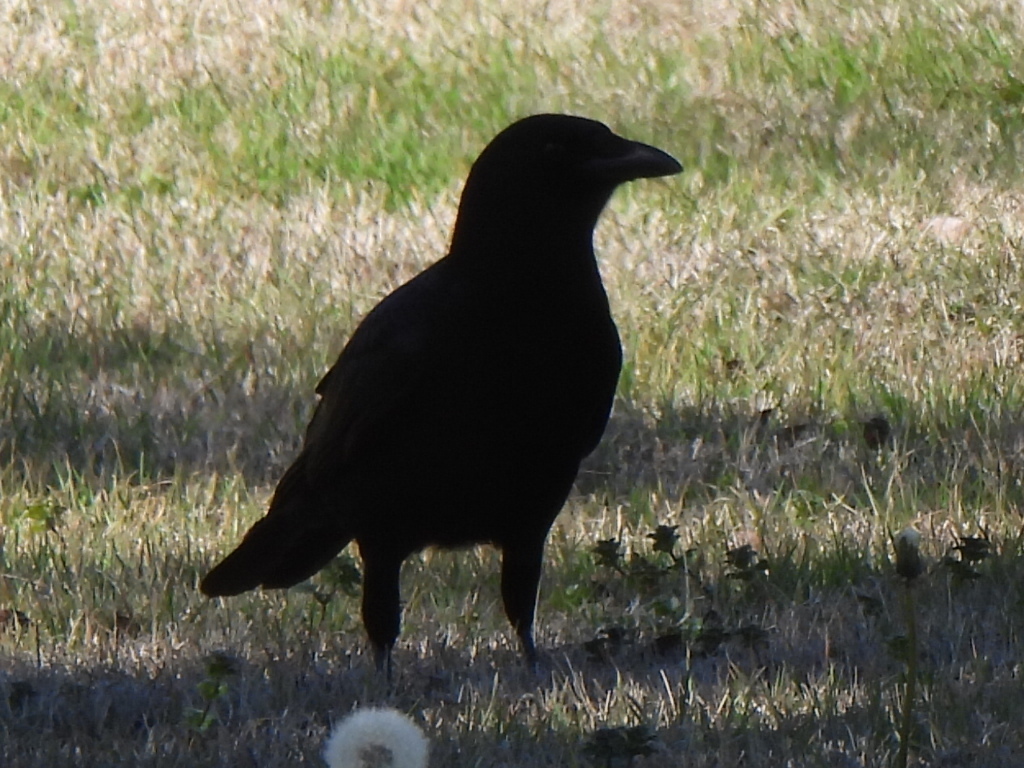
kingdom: Animalia
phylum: Chordata
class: Aves
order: Passeriformes
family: Corvidae
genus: Corvus
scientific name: Corvus brachyrhynchos
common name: American crow
